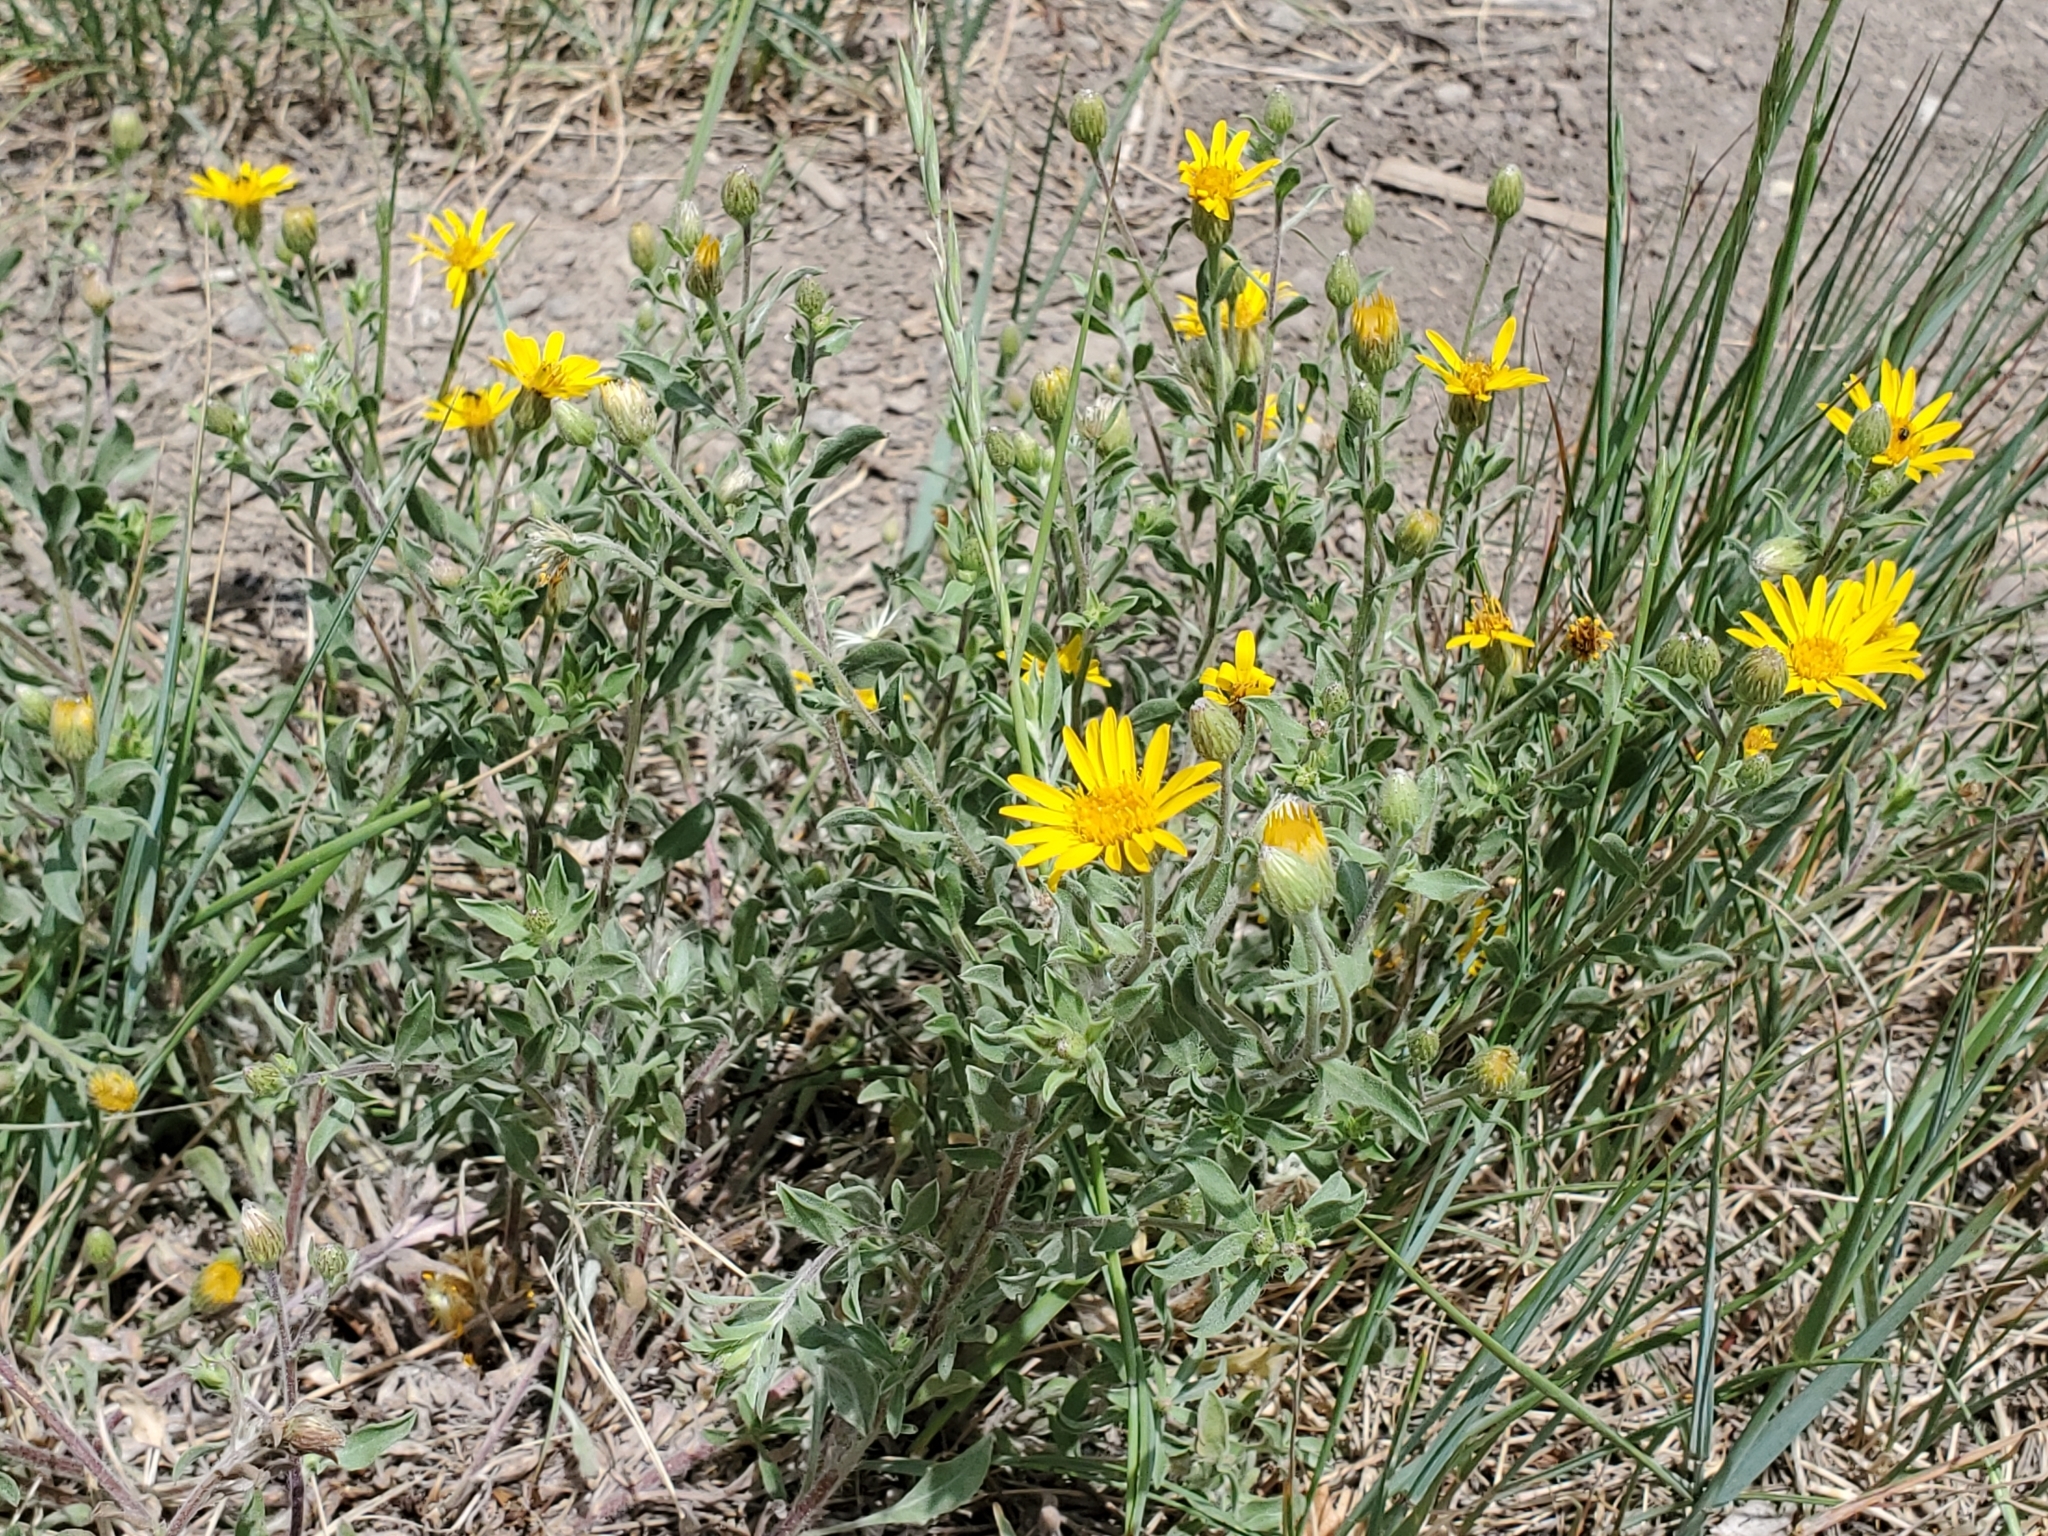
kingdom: Plantae
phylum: Tracheophyta
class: Magnoliopsida
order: Asterales
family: Asteraceae
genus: Heterotheca
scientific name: Heterotheca pedunculata
